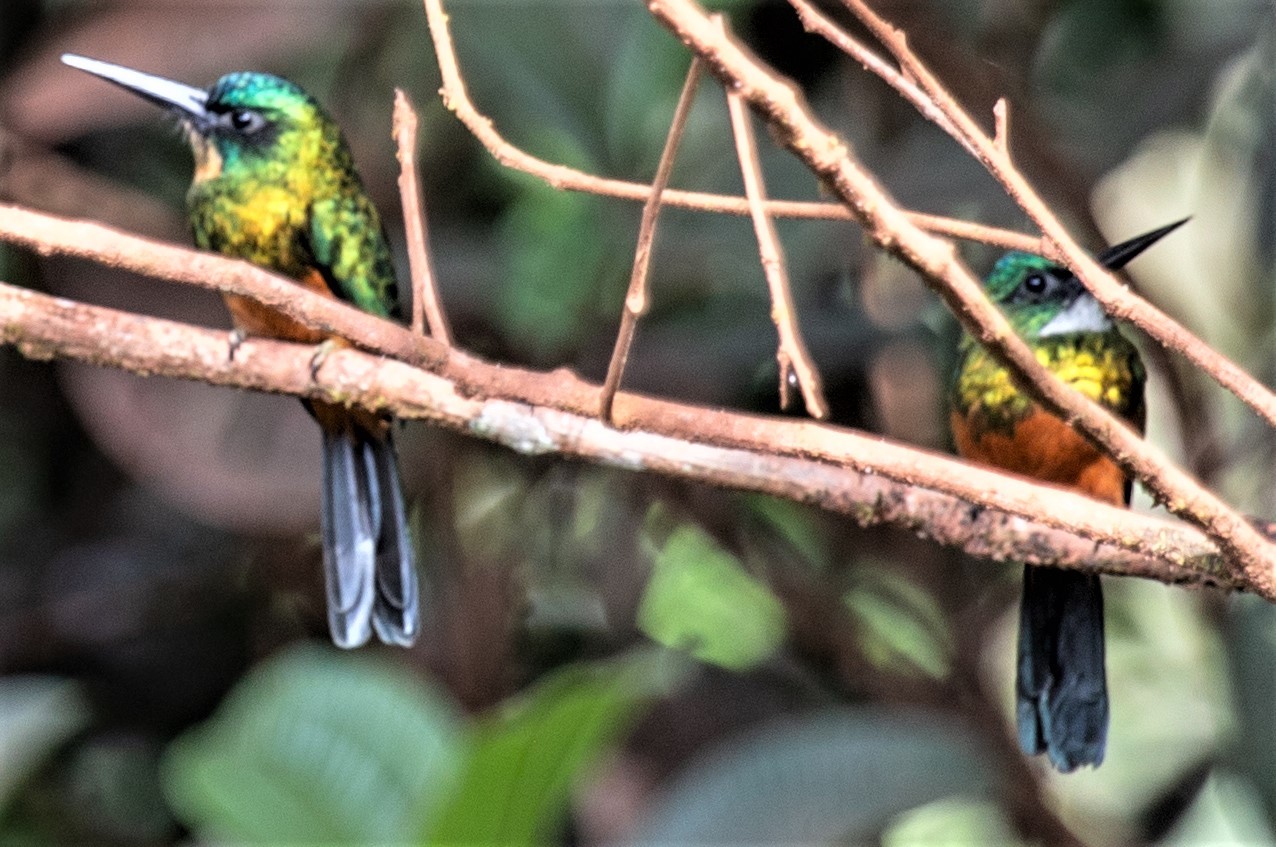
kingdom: Animalia
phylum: Chordata
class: Aves
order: Piciformes
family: Galbulidae
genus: Galbula
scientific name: Galbula galbula
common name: Green-tailed jacamar
